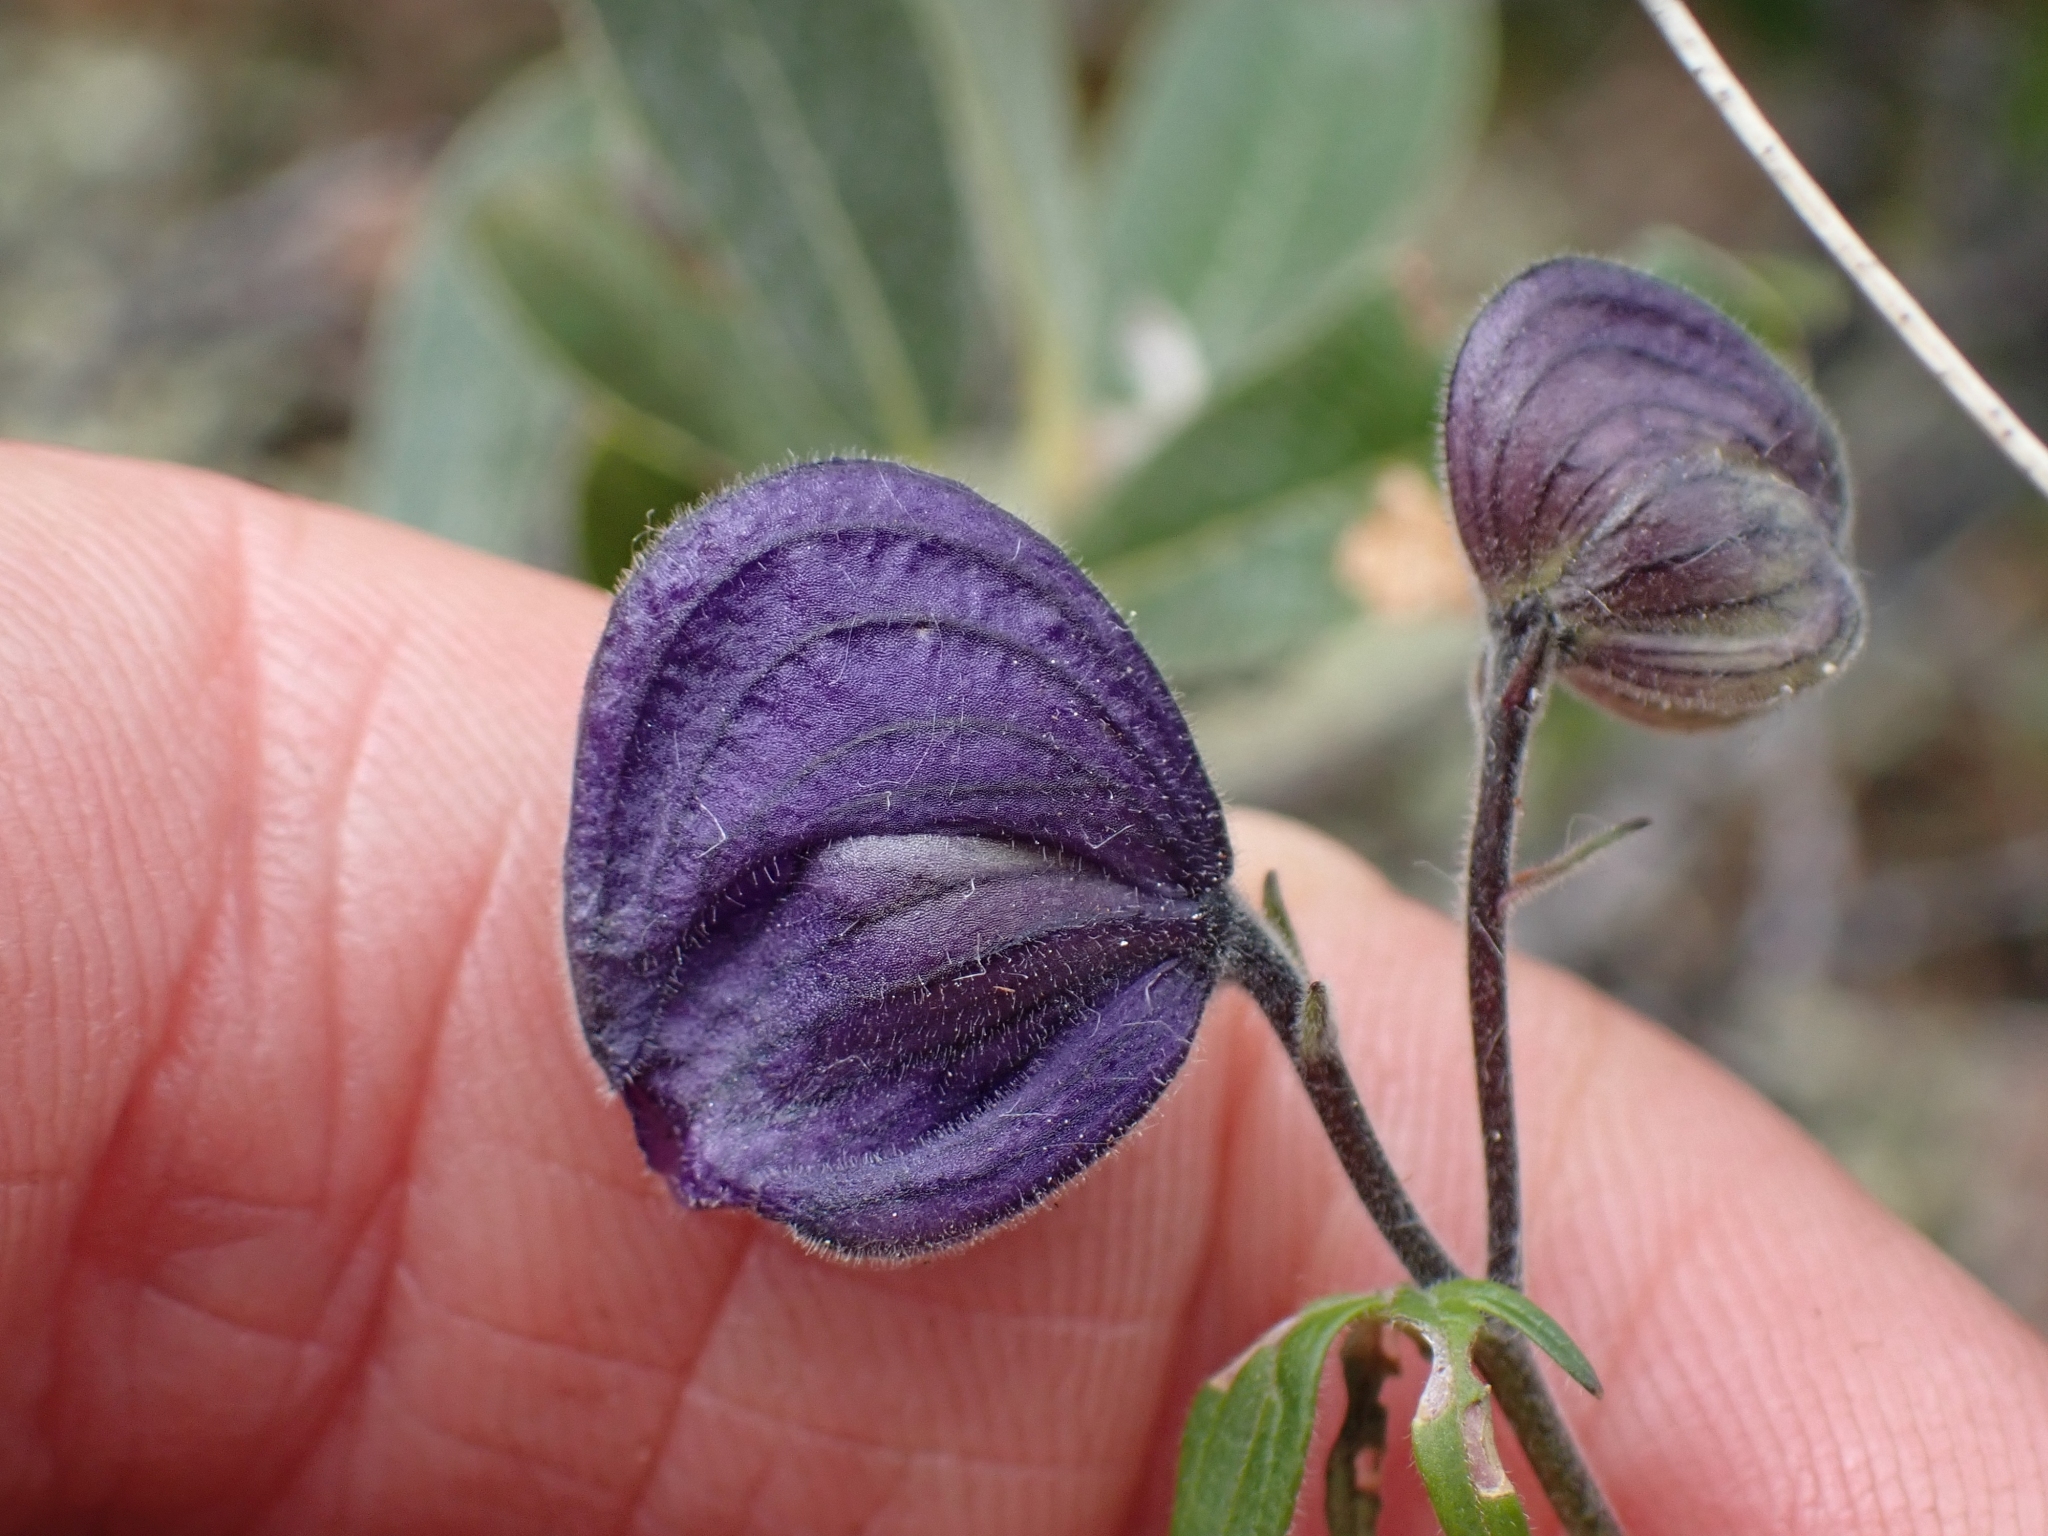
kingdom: Plantae
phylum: Tracheophyta
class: Magnoliopsida
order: Ranunculales
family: Ranunculaceae
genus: Aconitum
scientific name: Aconitum delphiniifolium
